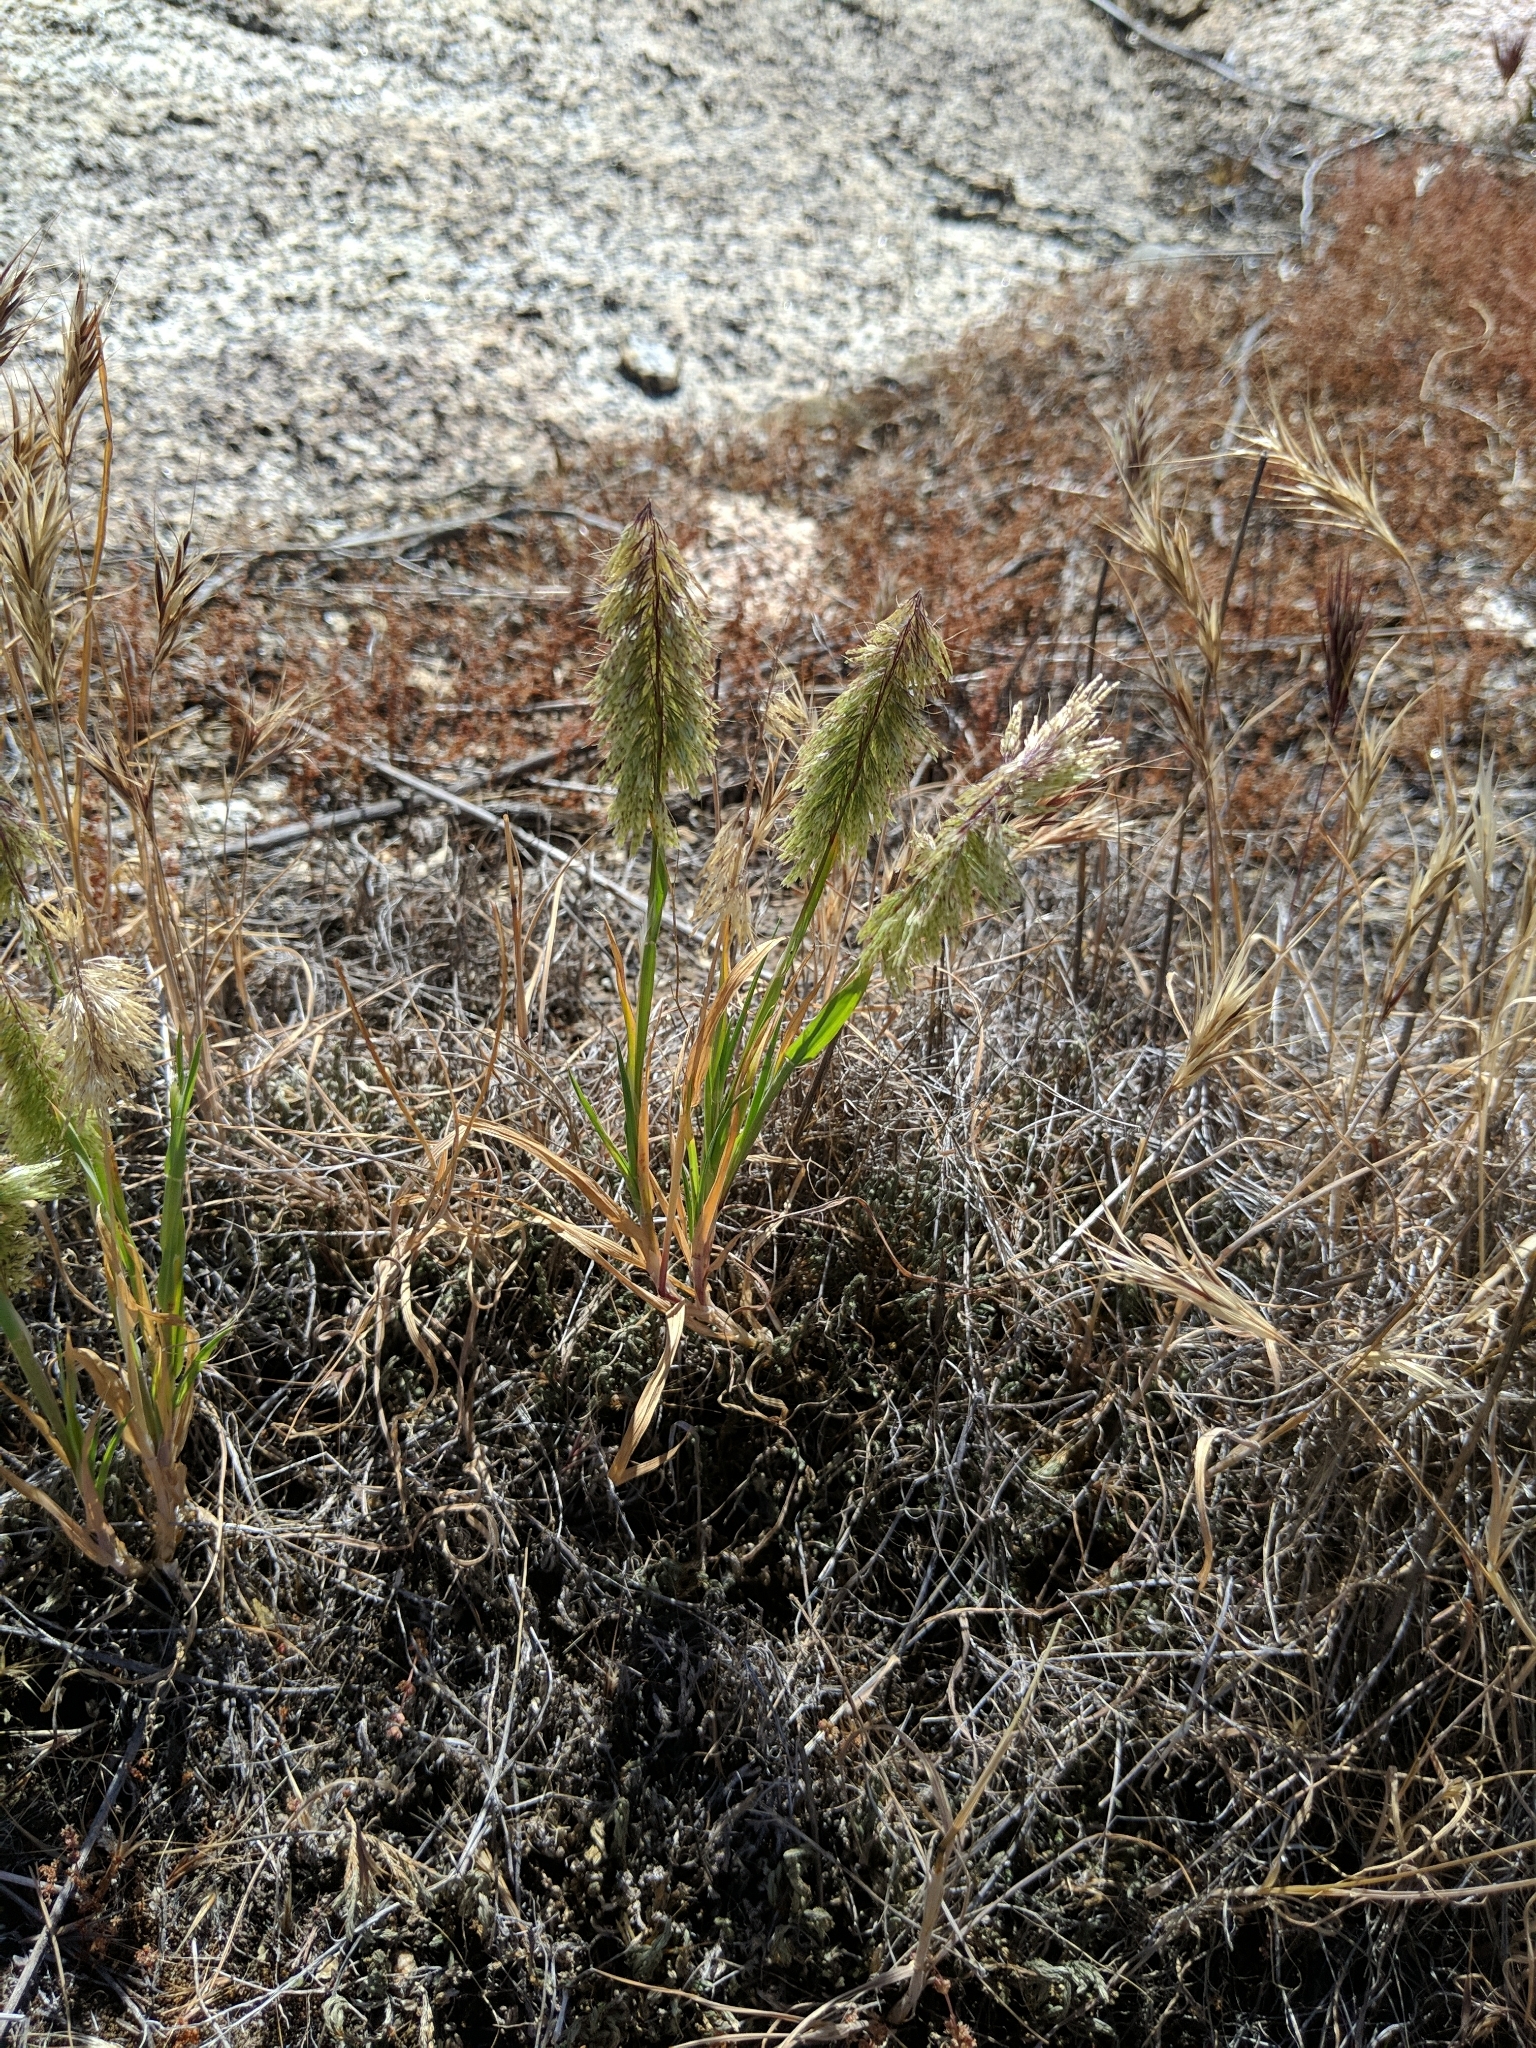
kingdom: Plantae
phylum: Tracheophyta
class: Liliopsida
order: Poales
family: Poaceae
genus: Lamarckia
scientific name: Lamarckia aurea
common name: Golden dog's-tail
